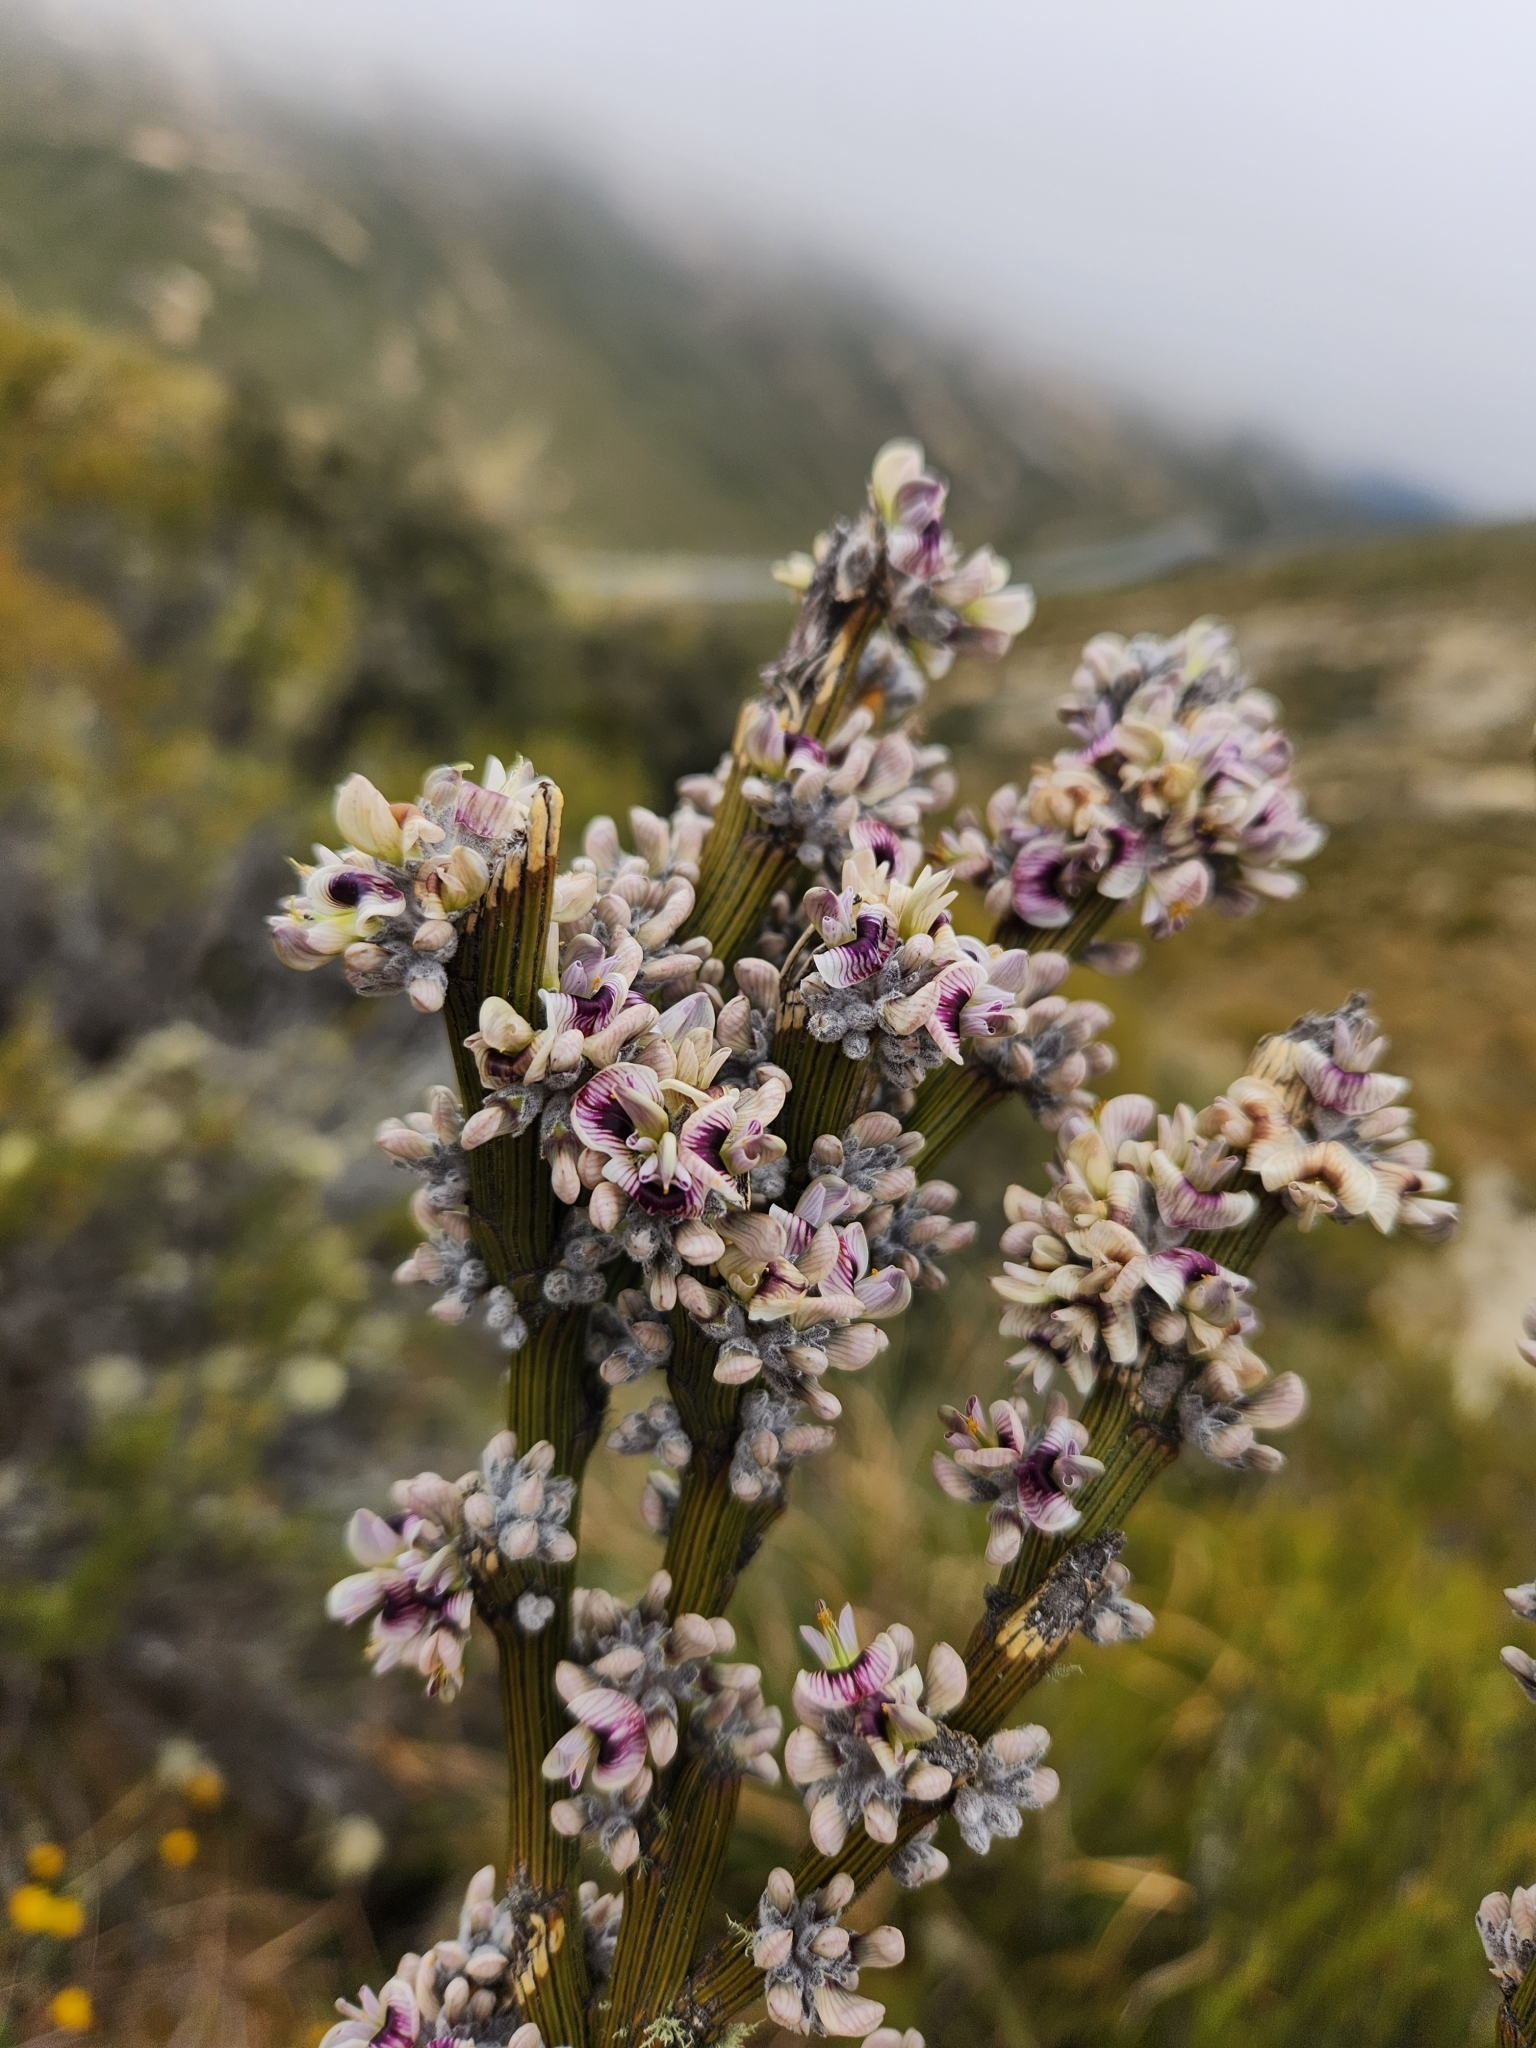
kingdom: Plantae
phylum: Tracheophyta
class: Magnoliopsida
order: Fabales
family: Fabaceae
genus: Carmichaelia
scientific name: Carmichaelia crassicaulis
